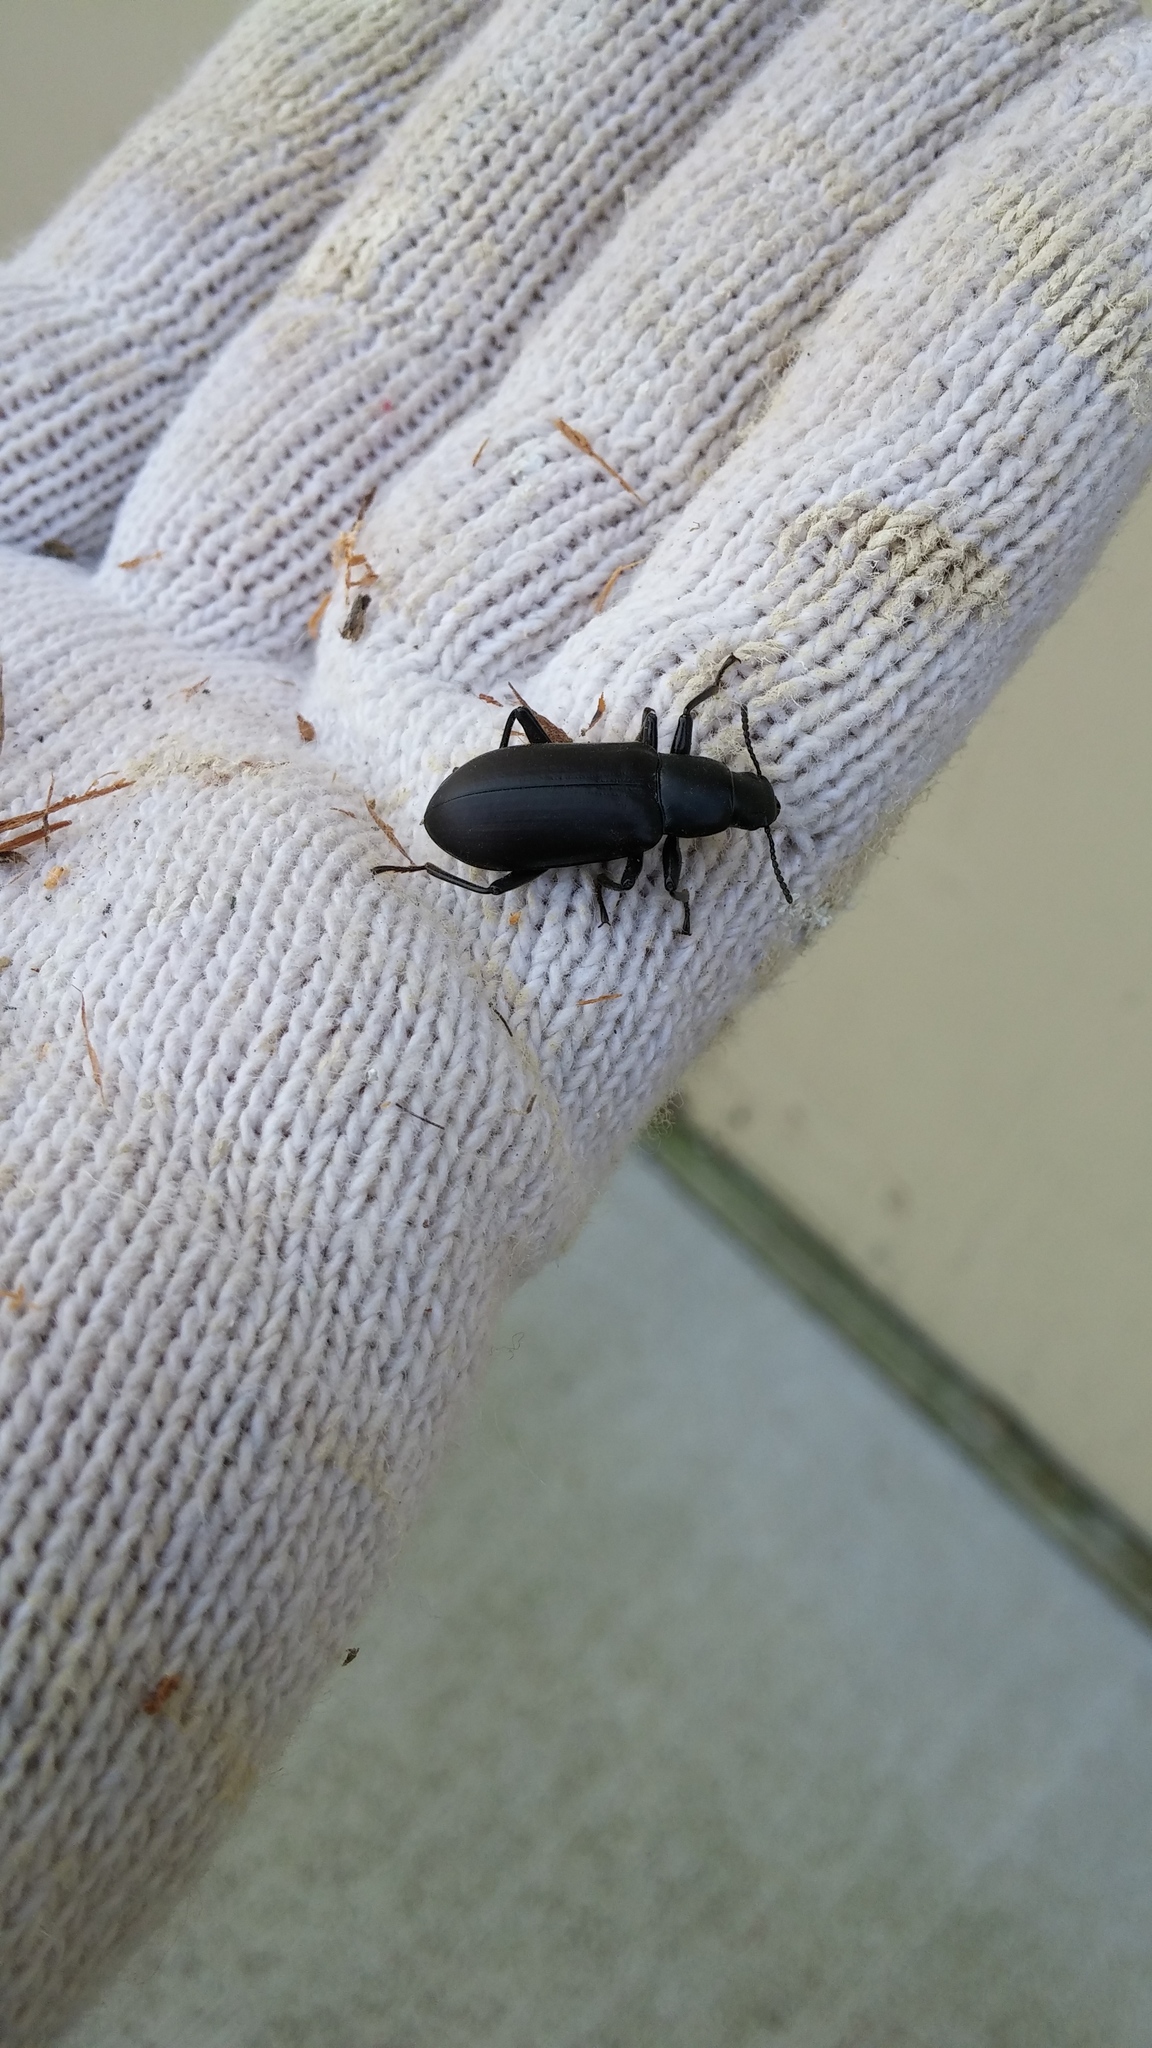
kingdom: Animalia
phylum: Arthropoda
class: Insecta
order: Coleoptera
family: Tenebrionidae
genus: Alobates
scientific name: Alobates pensylvanicus
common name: False mealworm beetle
